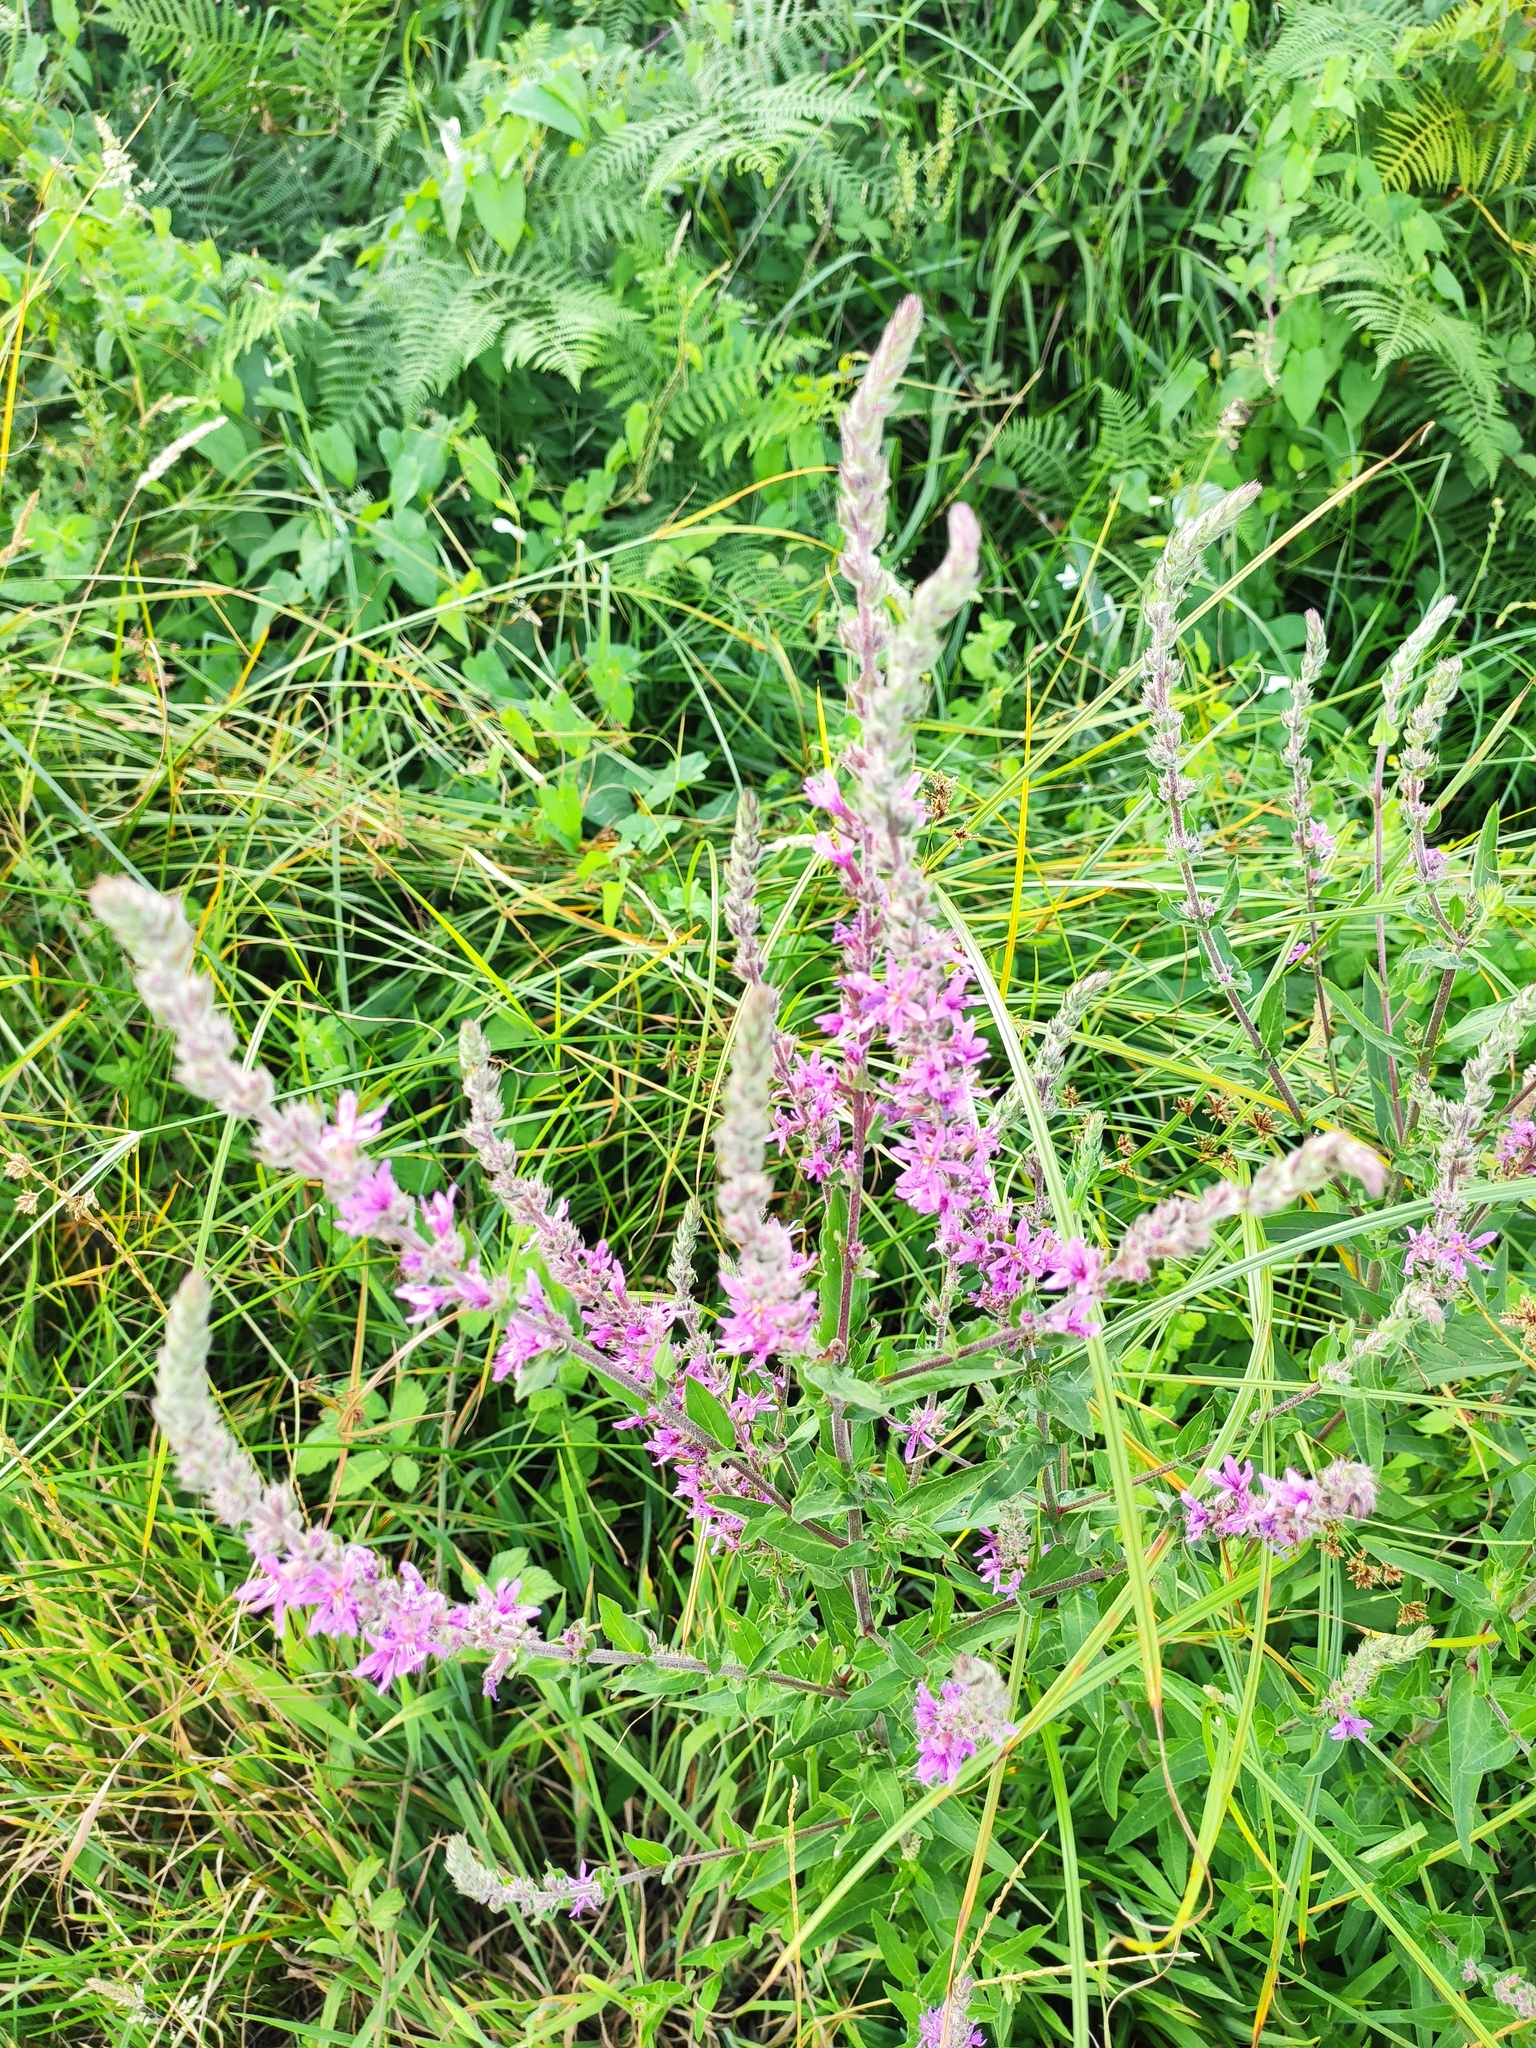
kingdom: Plantae
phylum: Tracheophyta
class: Magnoliopsida
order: Myrtales
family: Lythraceae
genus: Lythrum
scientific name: Lythrum salicaria
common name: Purple loosestrife
